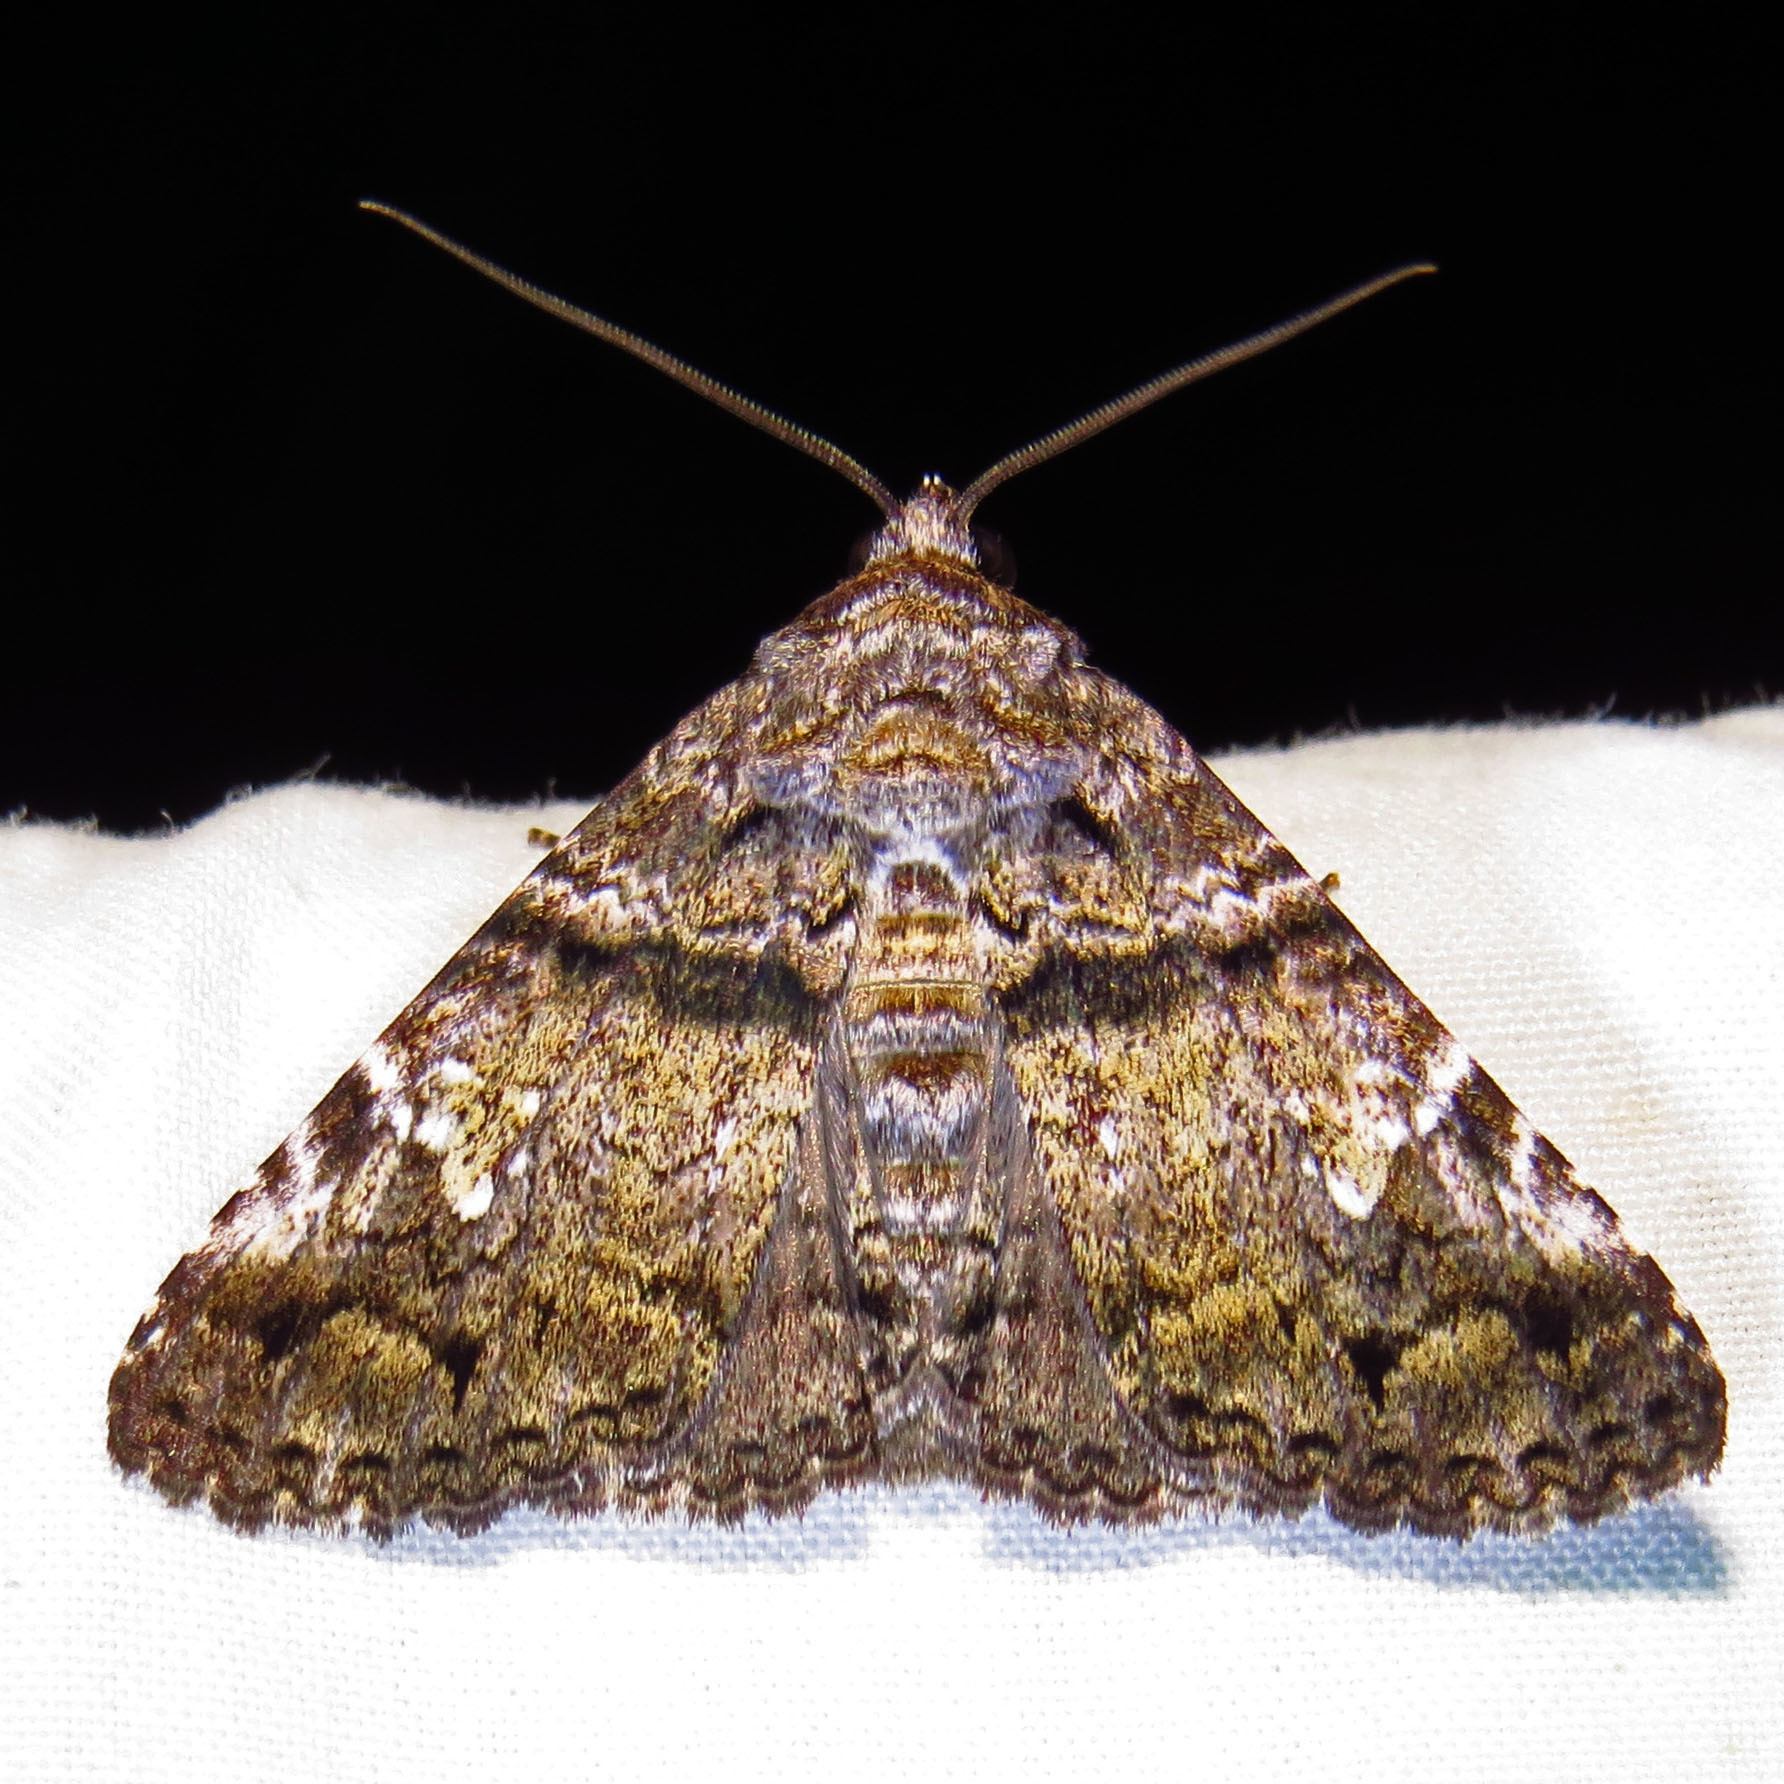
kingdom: Animalia
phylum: Arthropoda
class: Insecta
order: Lepidoptera
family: Erebidae
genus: Metria
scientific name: Metria amella
